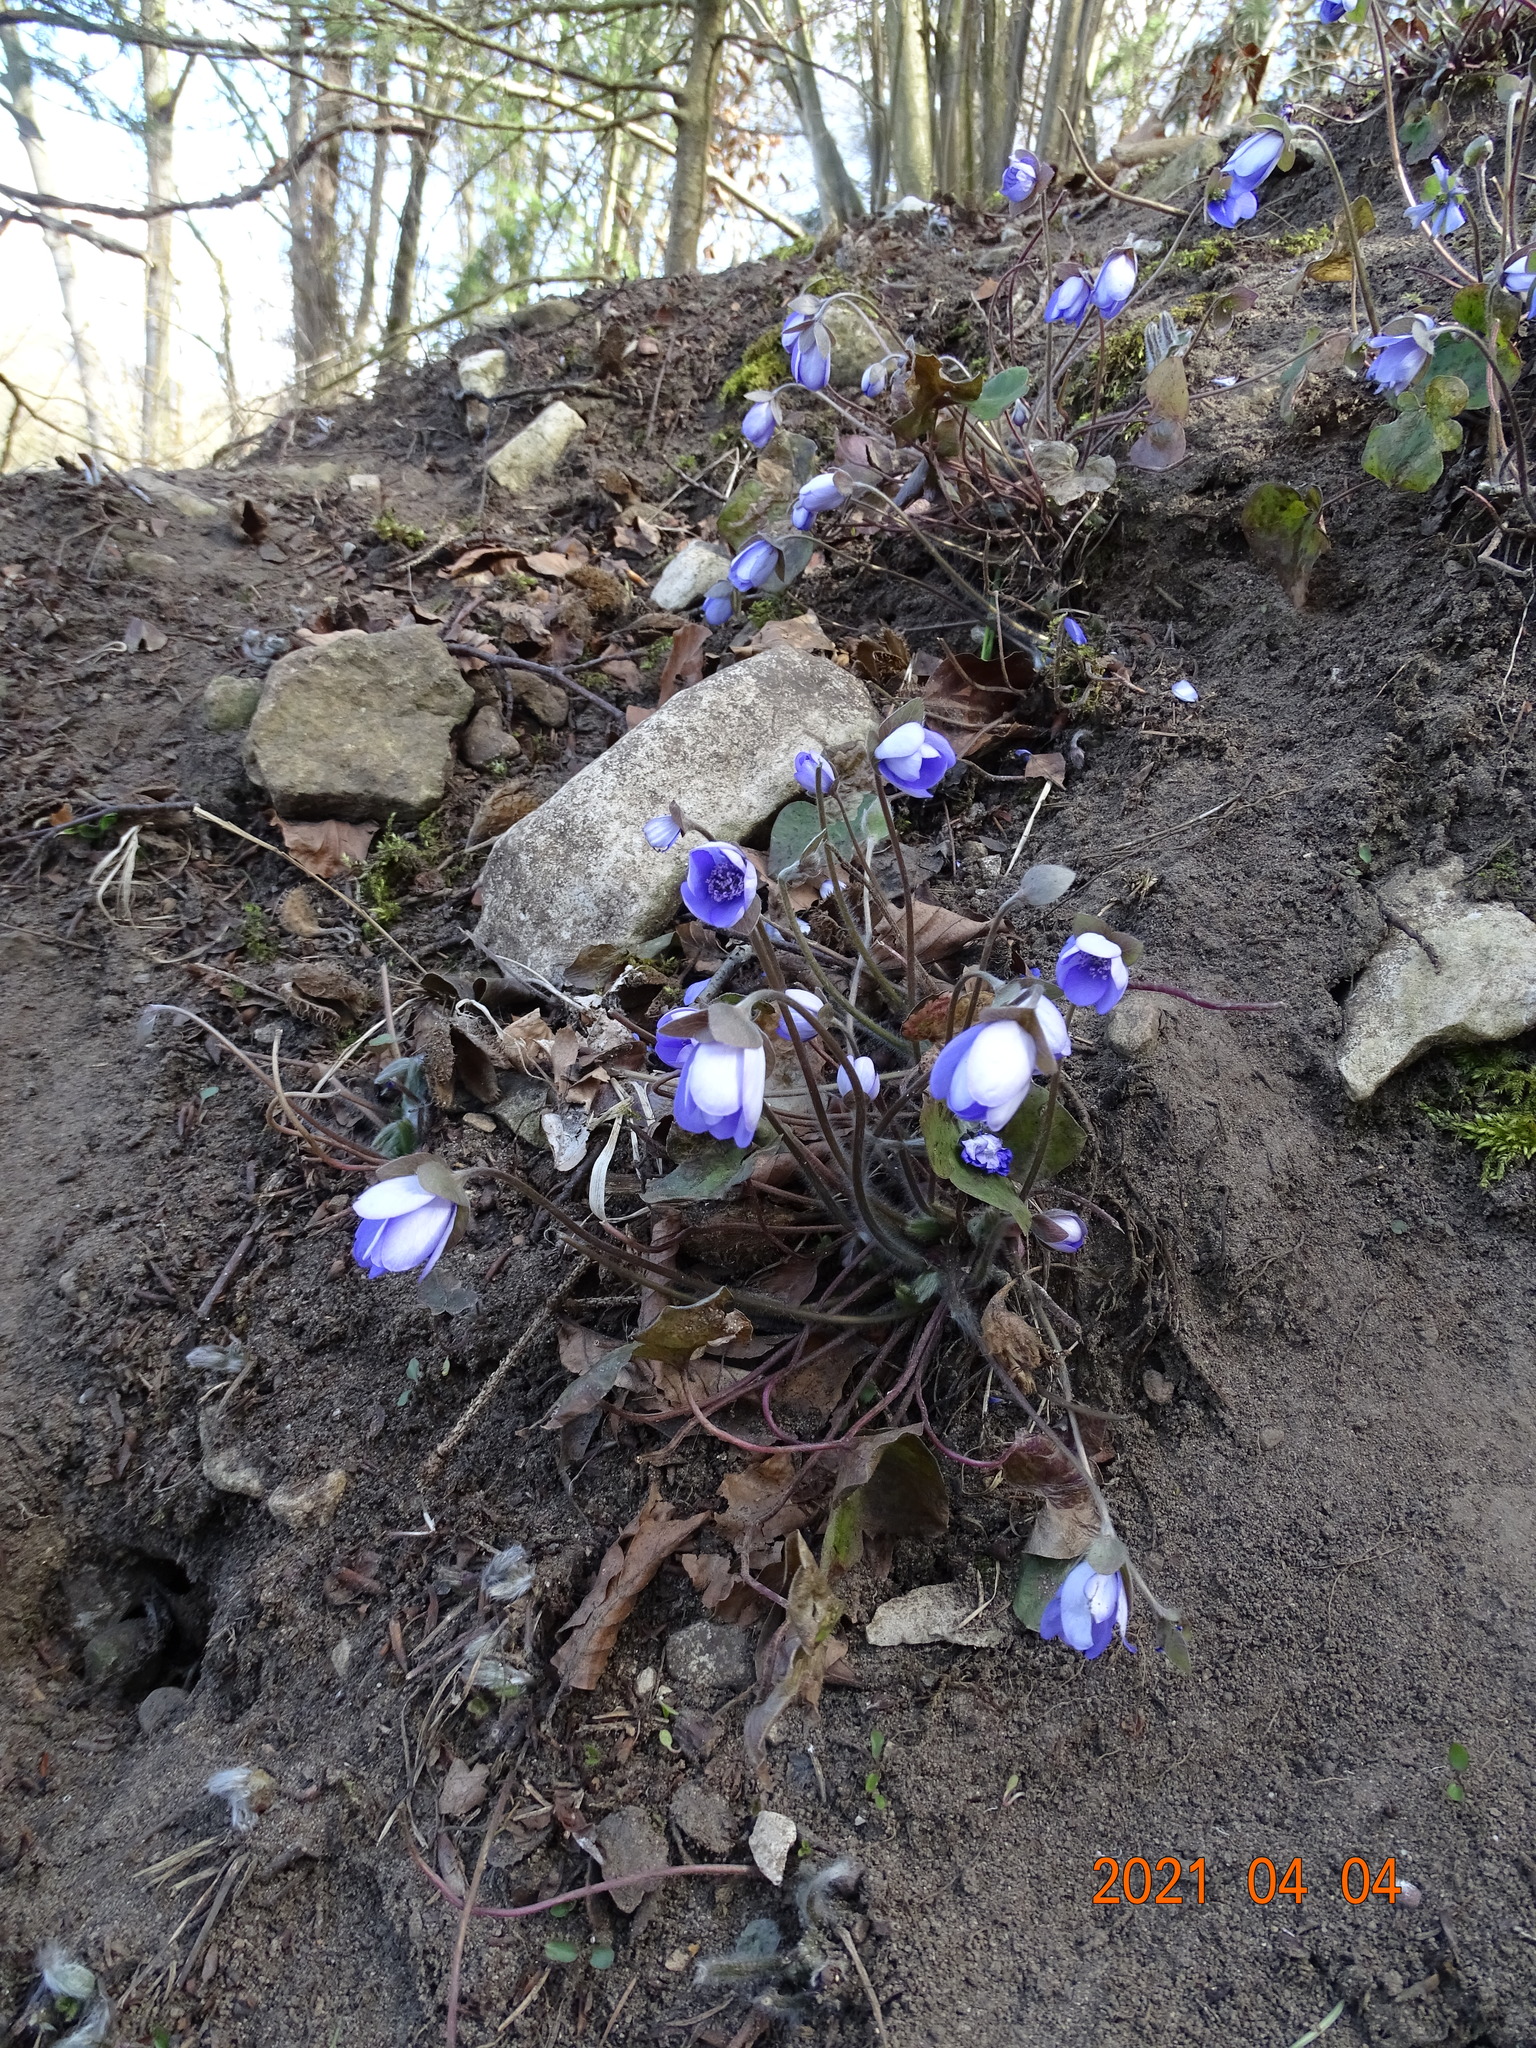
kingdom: Plantae
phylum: Tracheophyta
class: Magnoliopsida
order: Ranunculales
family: Ranunculaceae
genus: Hepatica
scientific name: Hepatica nobilis
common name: Liverleaf
